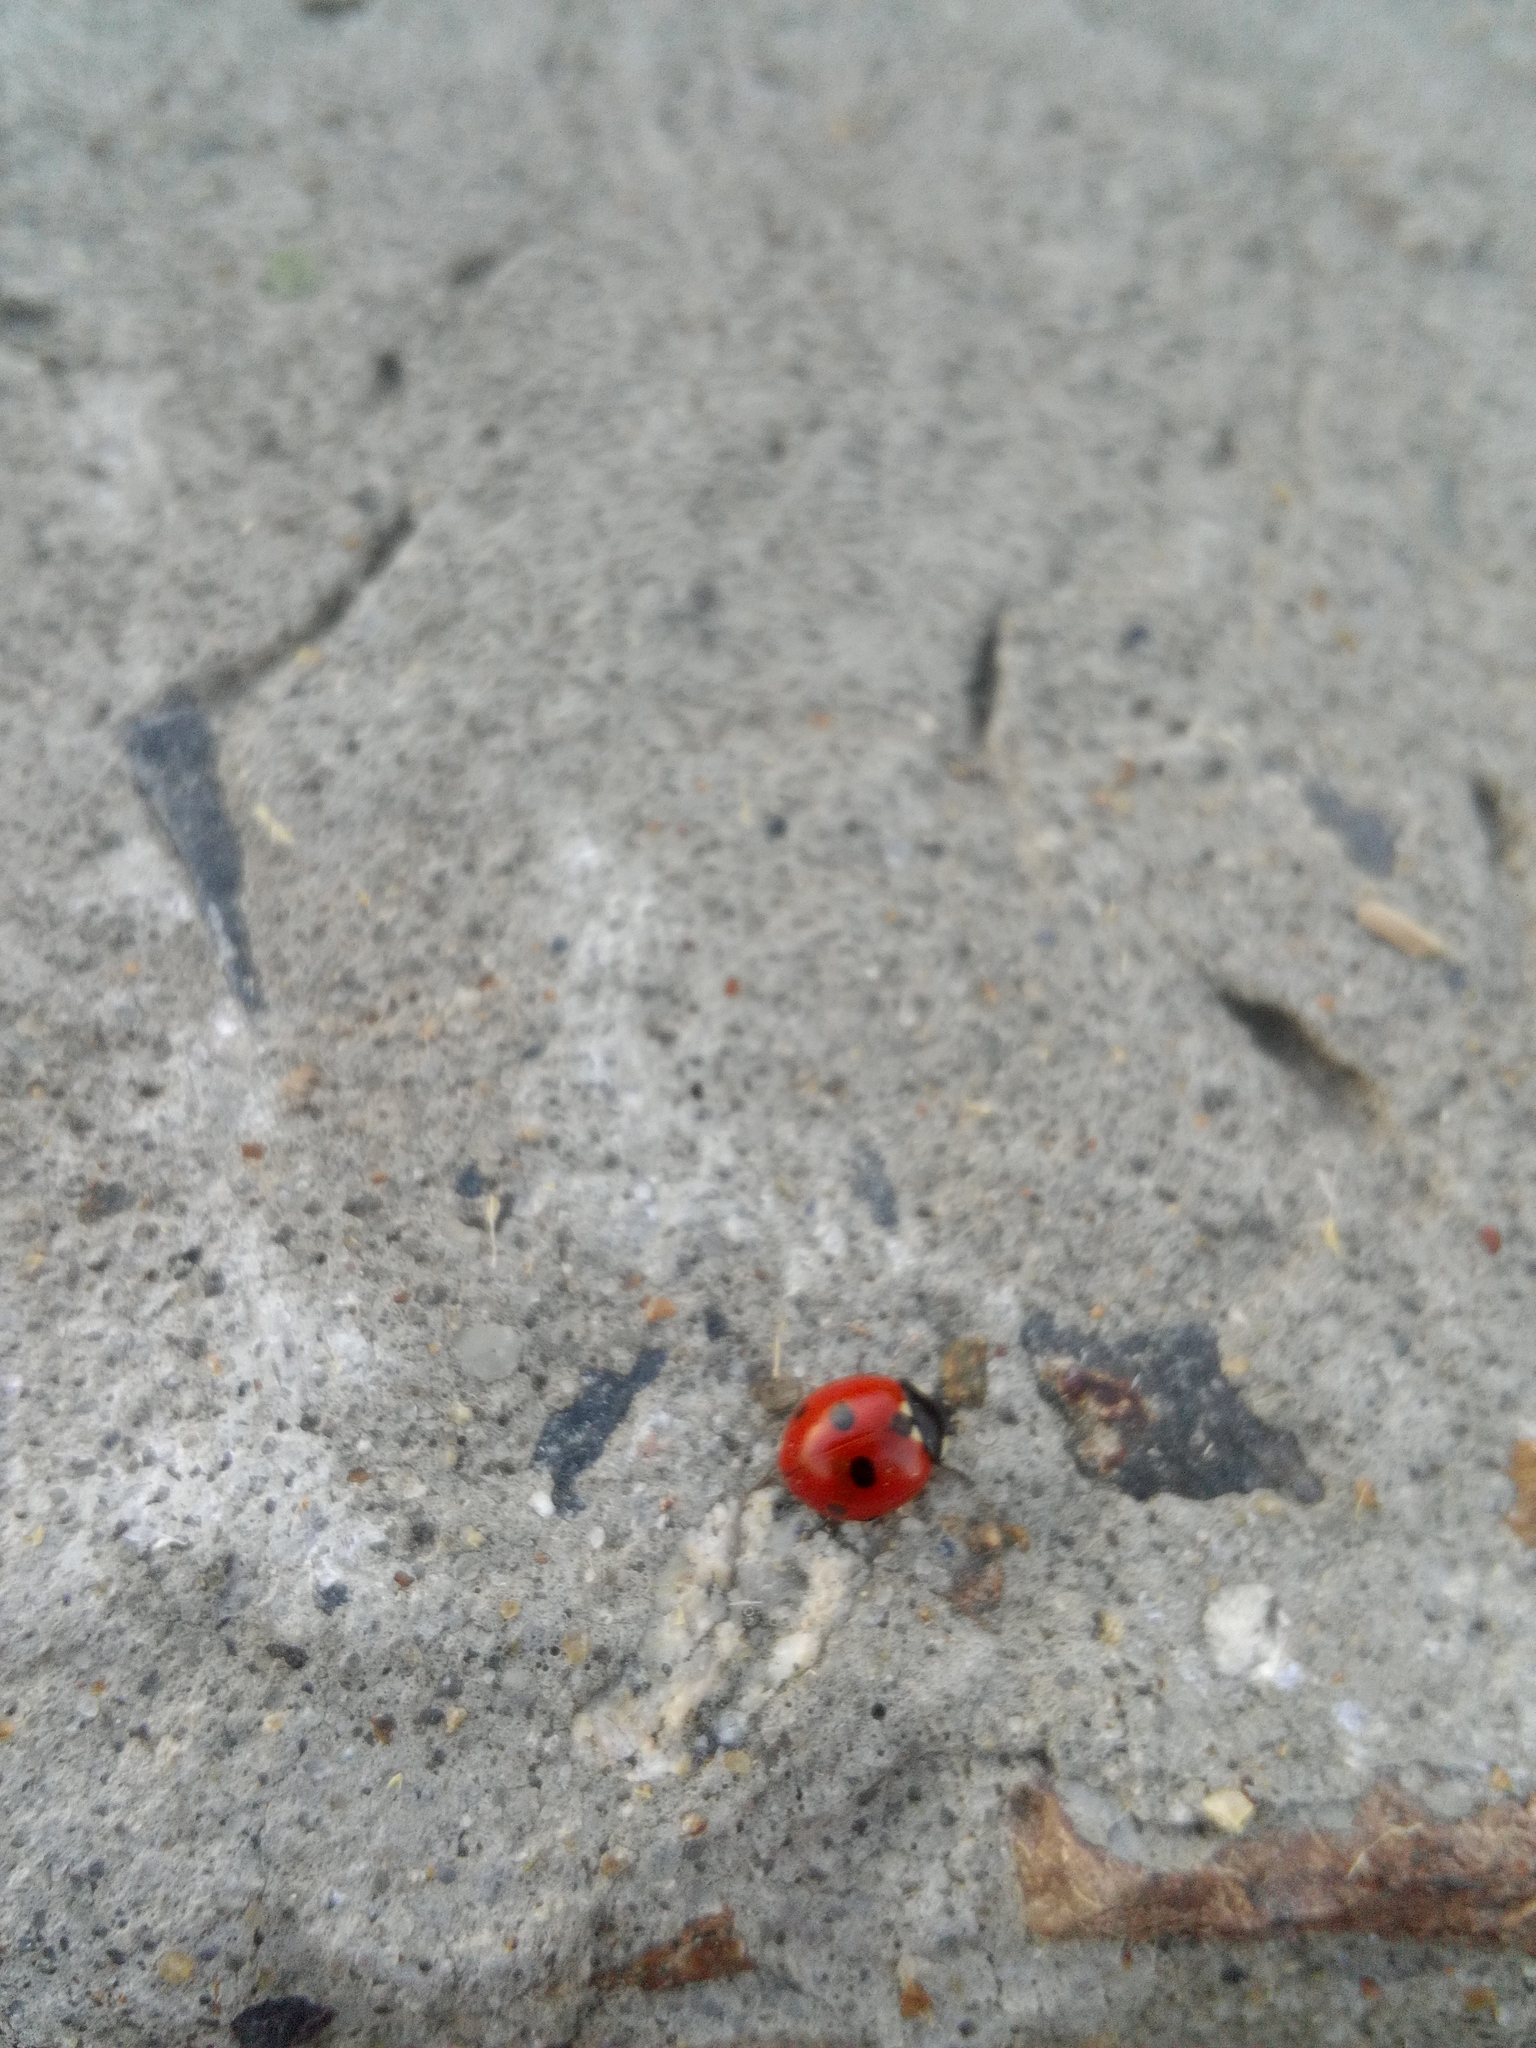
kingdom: Animalia
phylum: Arthropoda
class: Insecta
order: Coleoptera
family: Coccinellidae
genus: Coccinella
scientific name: Coccinella quinquepunctata
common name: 5-spot ladybird
